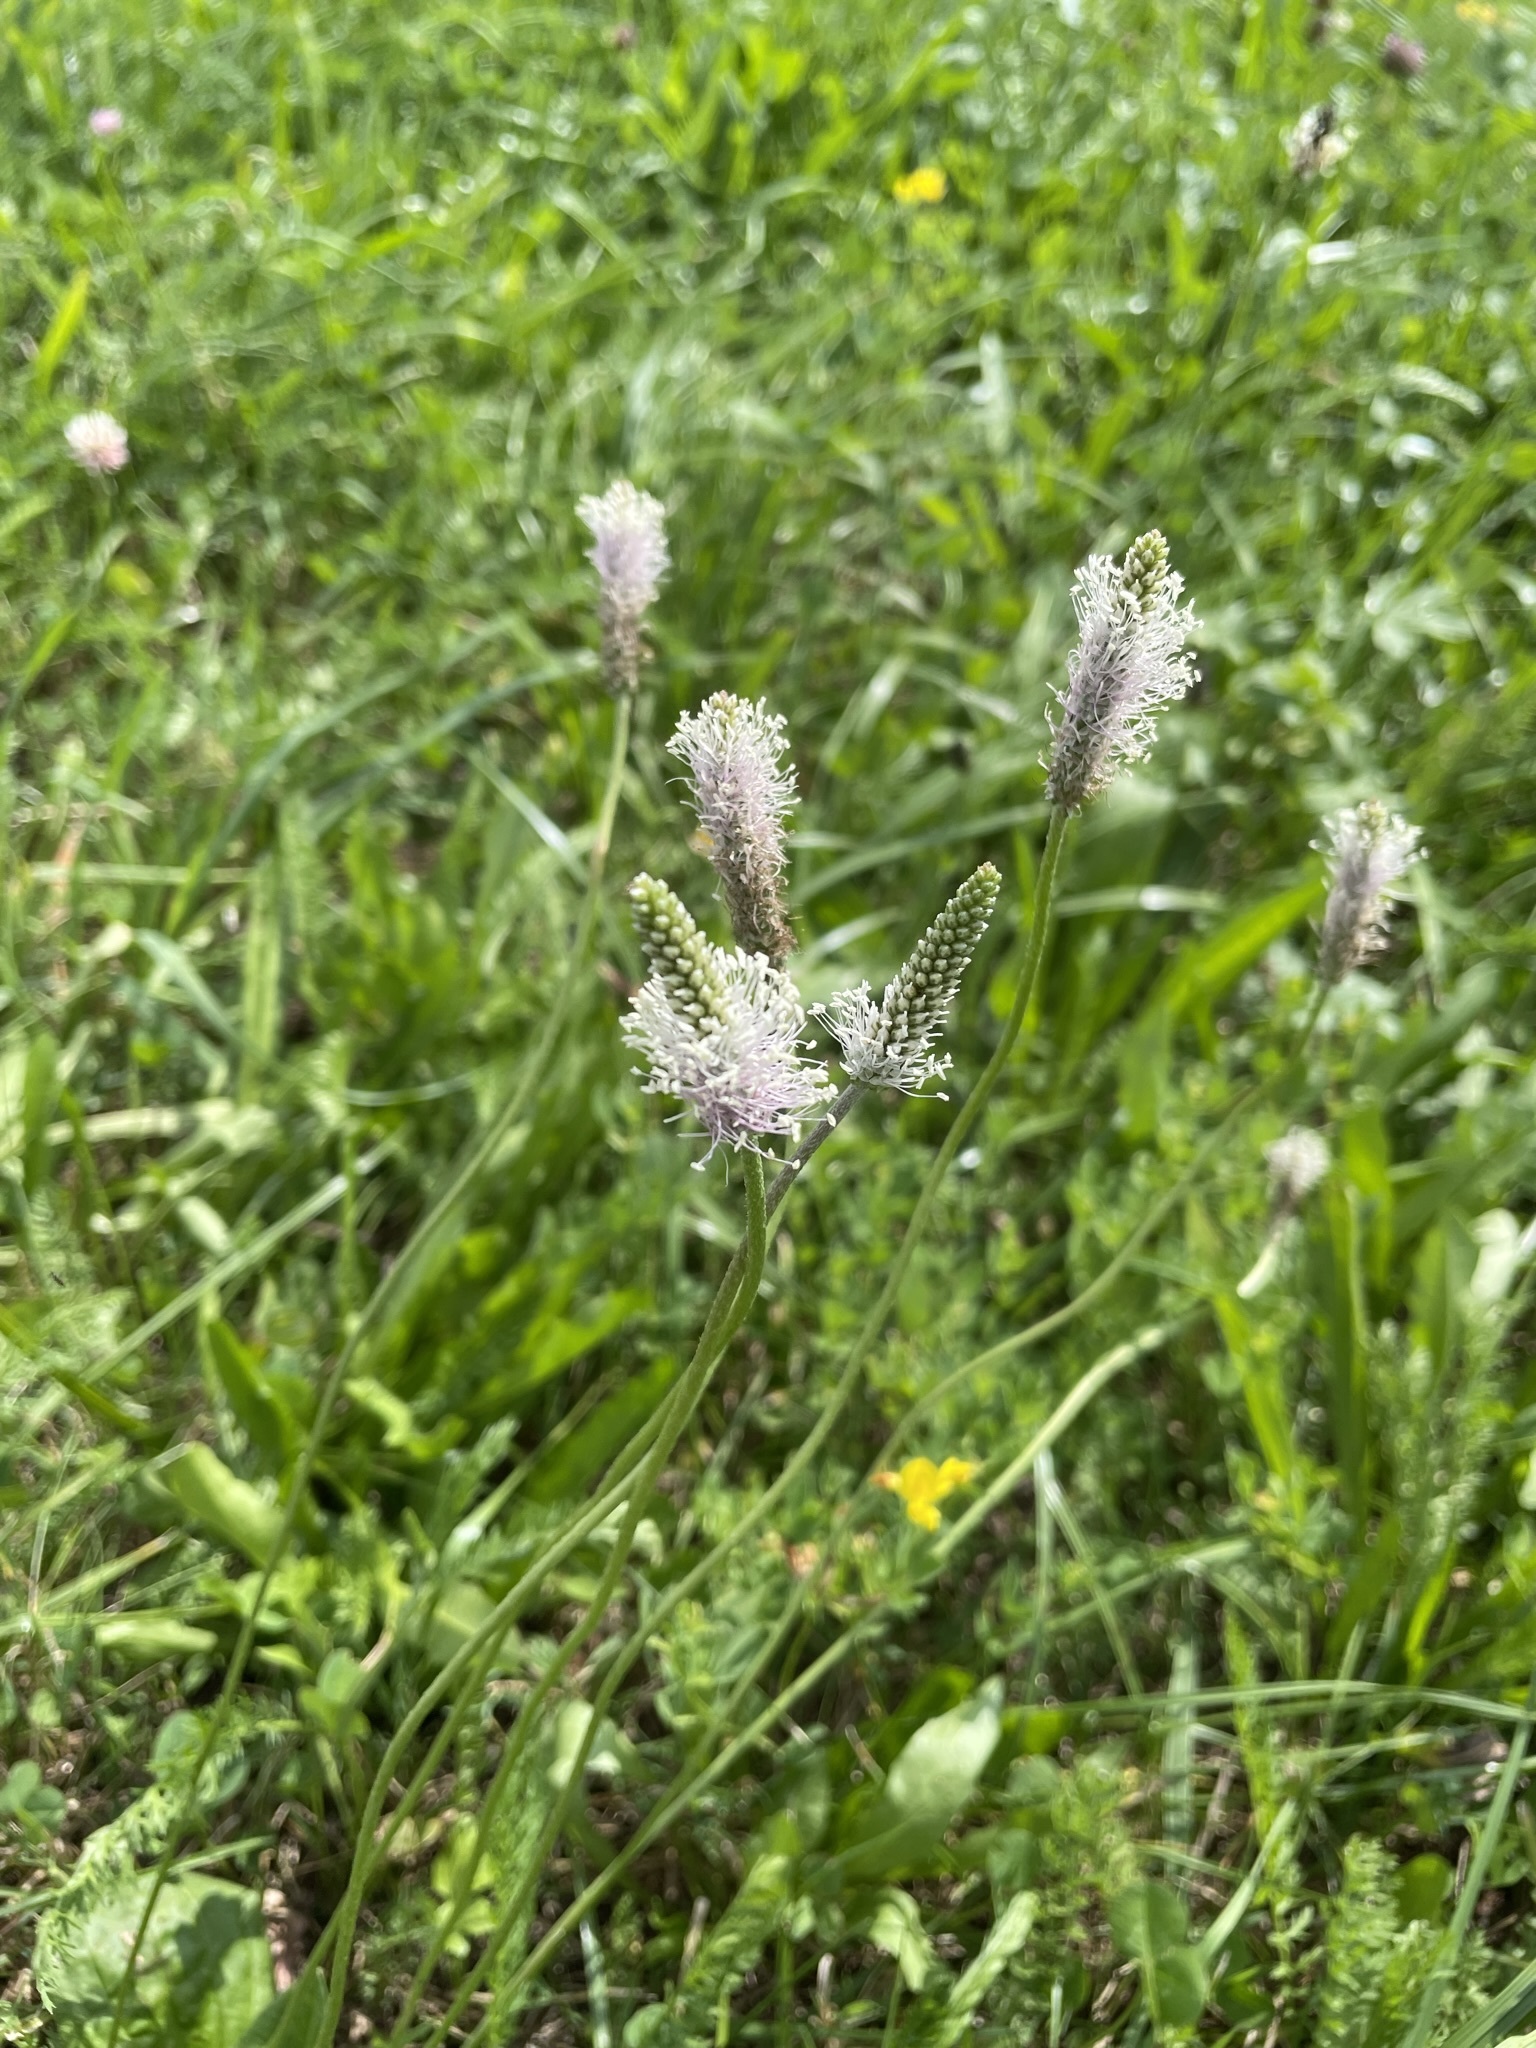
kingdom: Plantae
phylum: Tracheophyta
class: Magnoliopsida
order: Lamiales
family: Plantaginaceae
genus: Plantago
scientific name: Plantago media
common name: Hoary plantain
